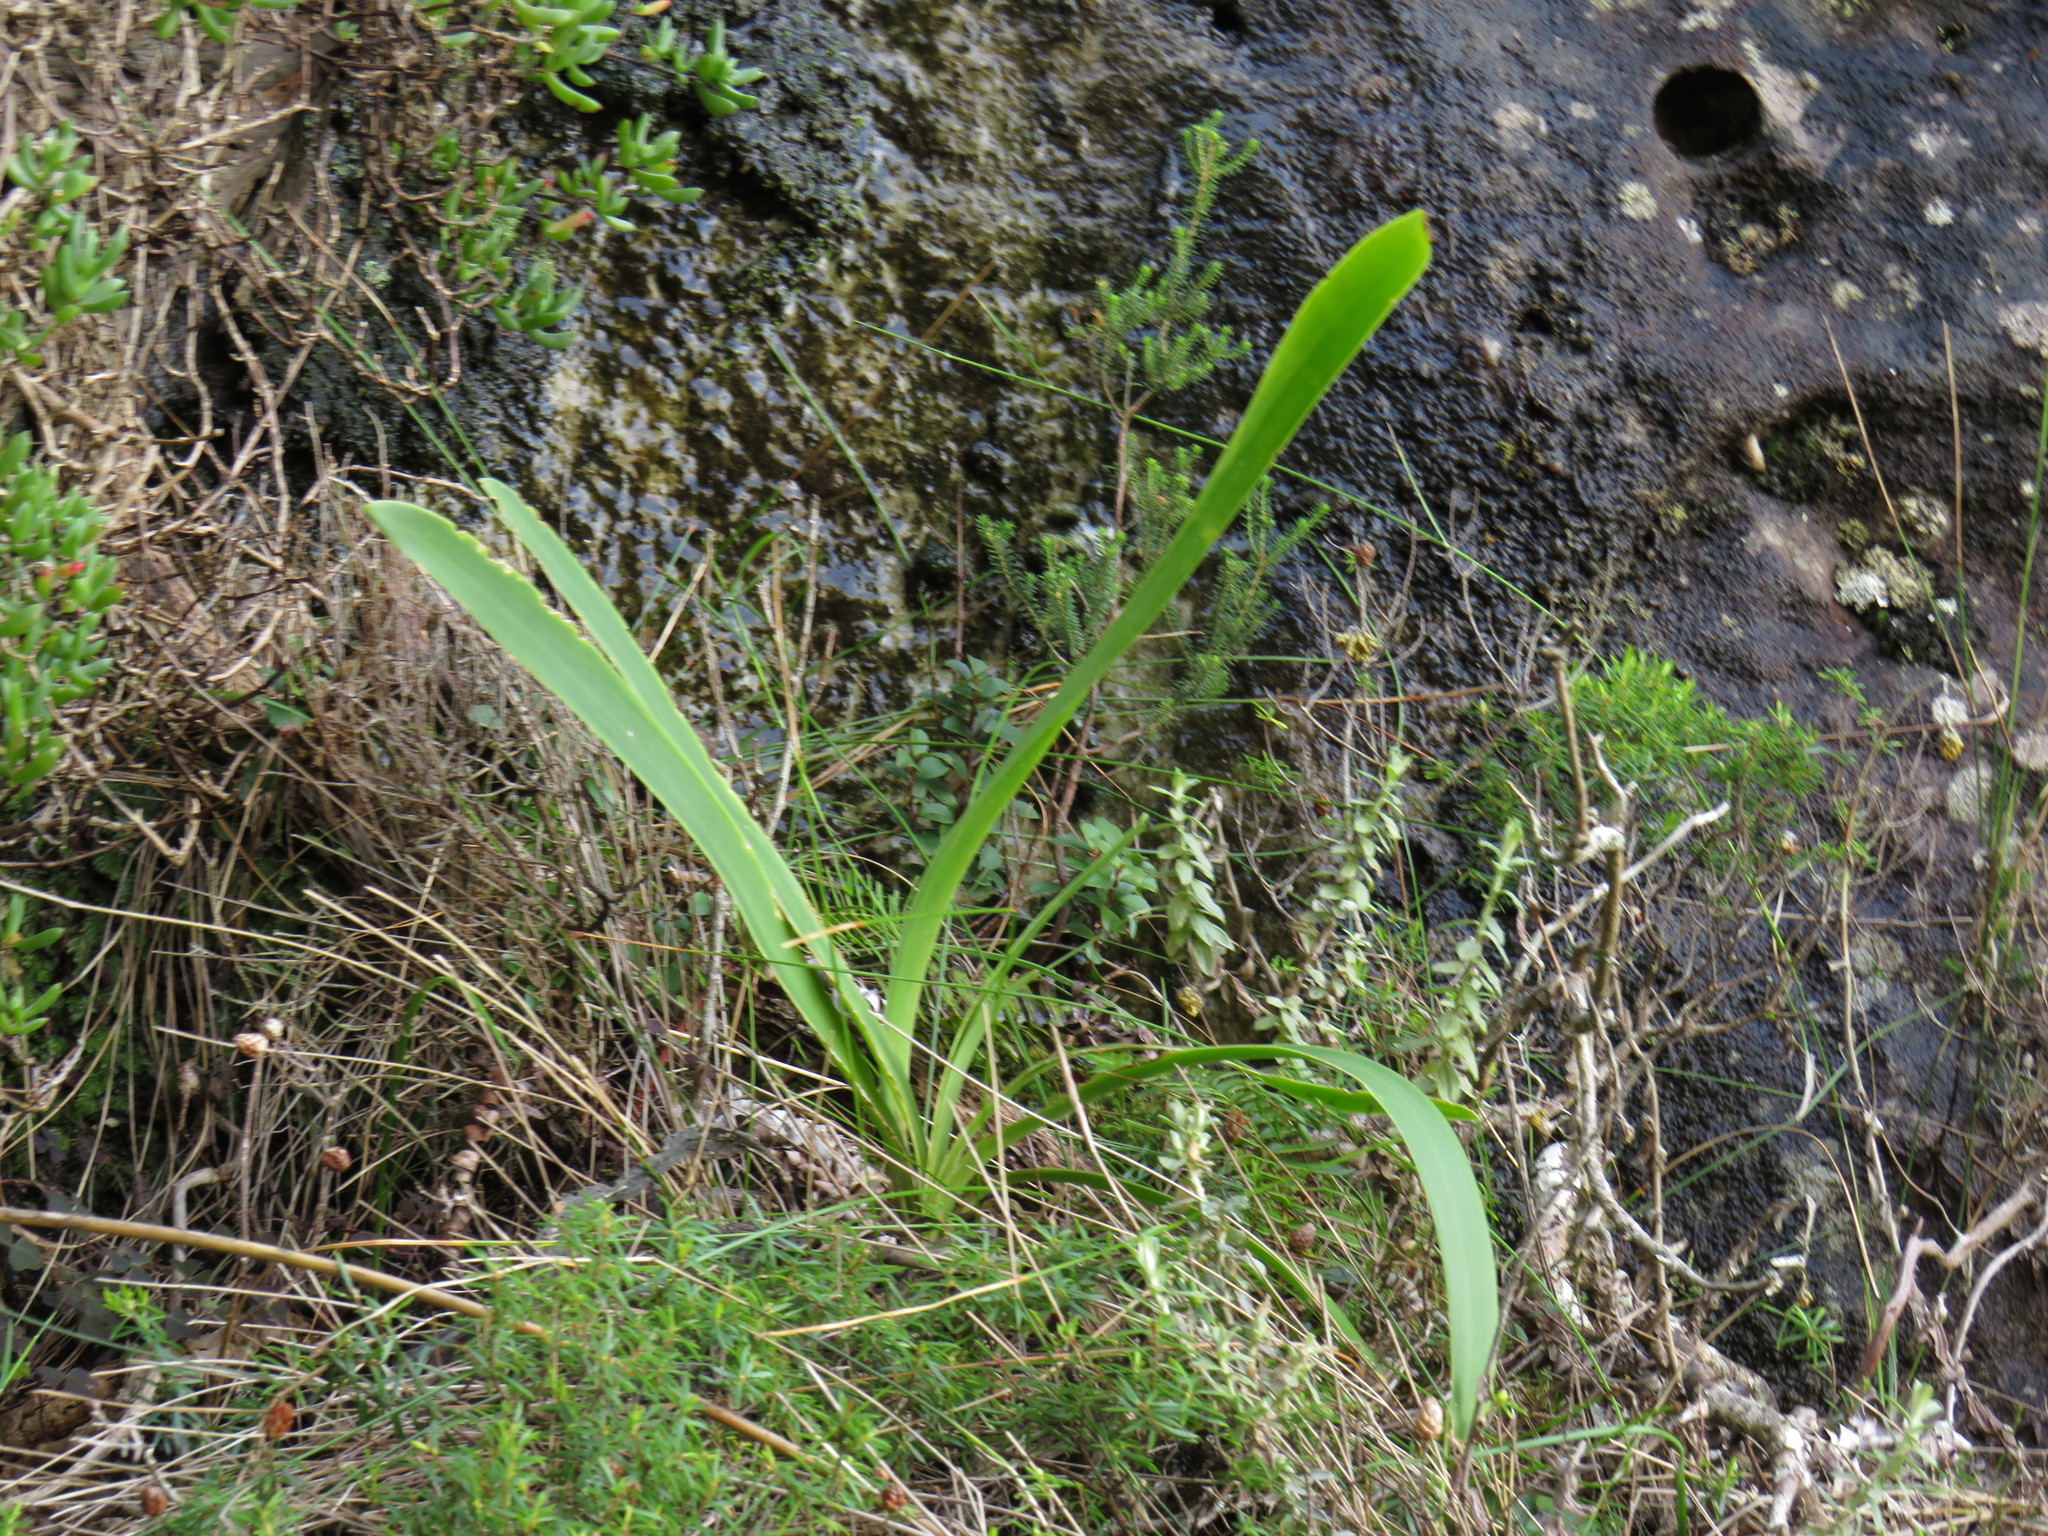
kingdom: Plantae
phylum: Tracheophyta
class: Liliopsida
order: Asparagales
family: Amaryllidaceae
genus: Nerine
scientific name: Nerine sarniensis
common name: Guernsey-lily
